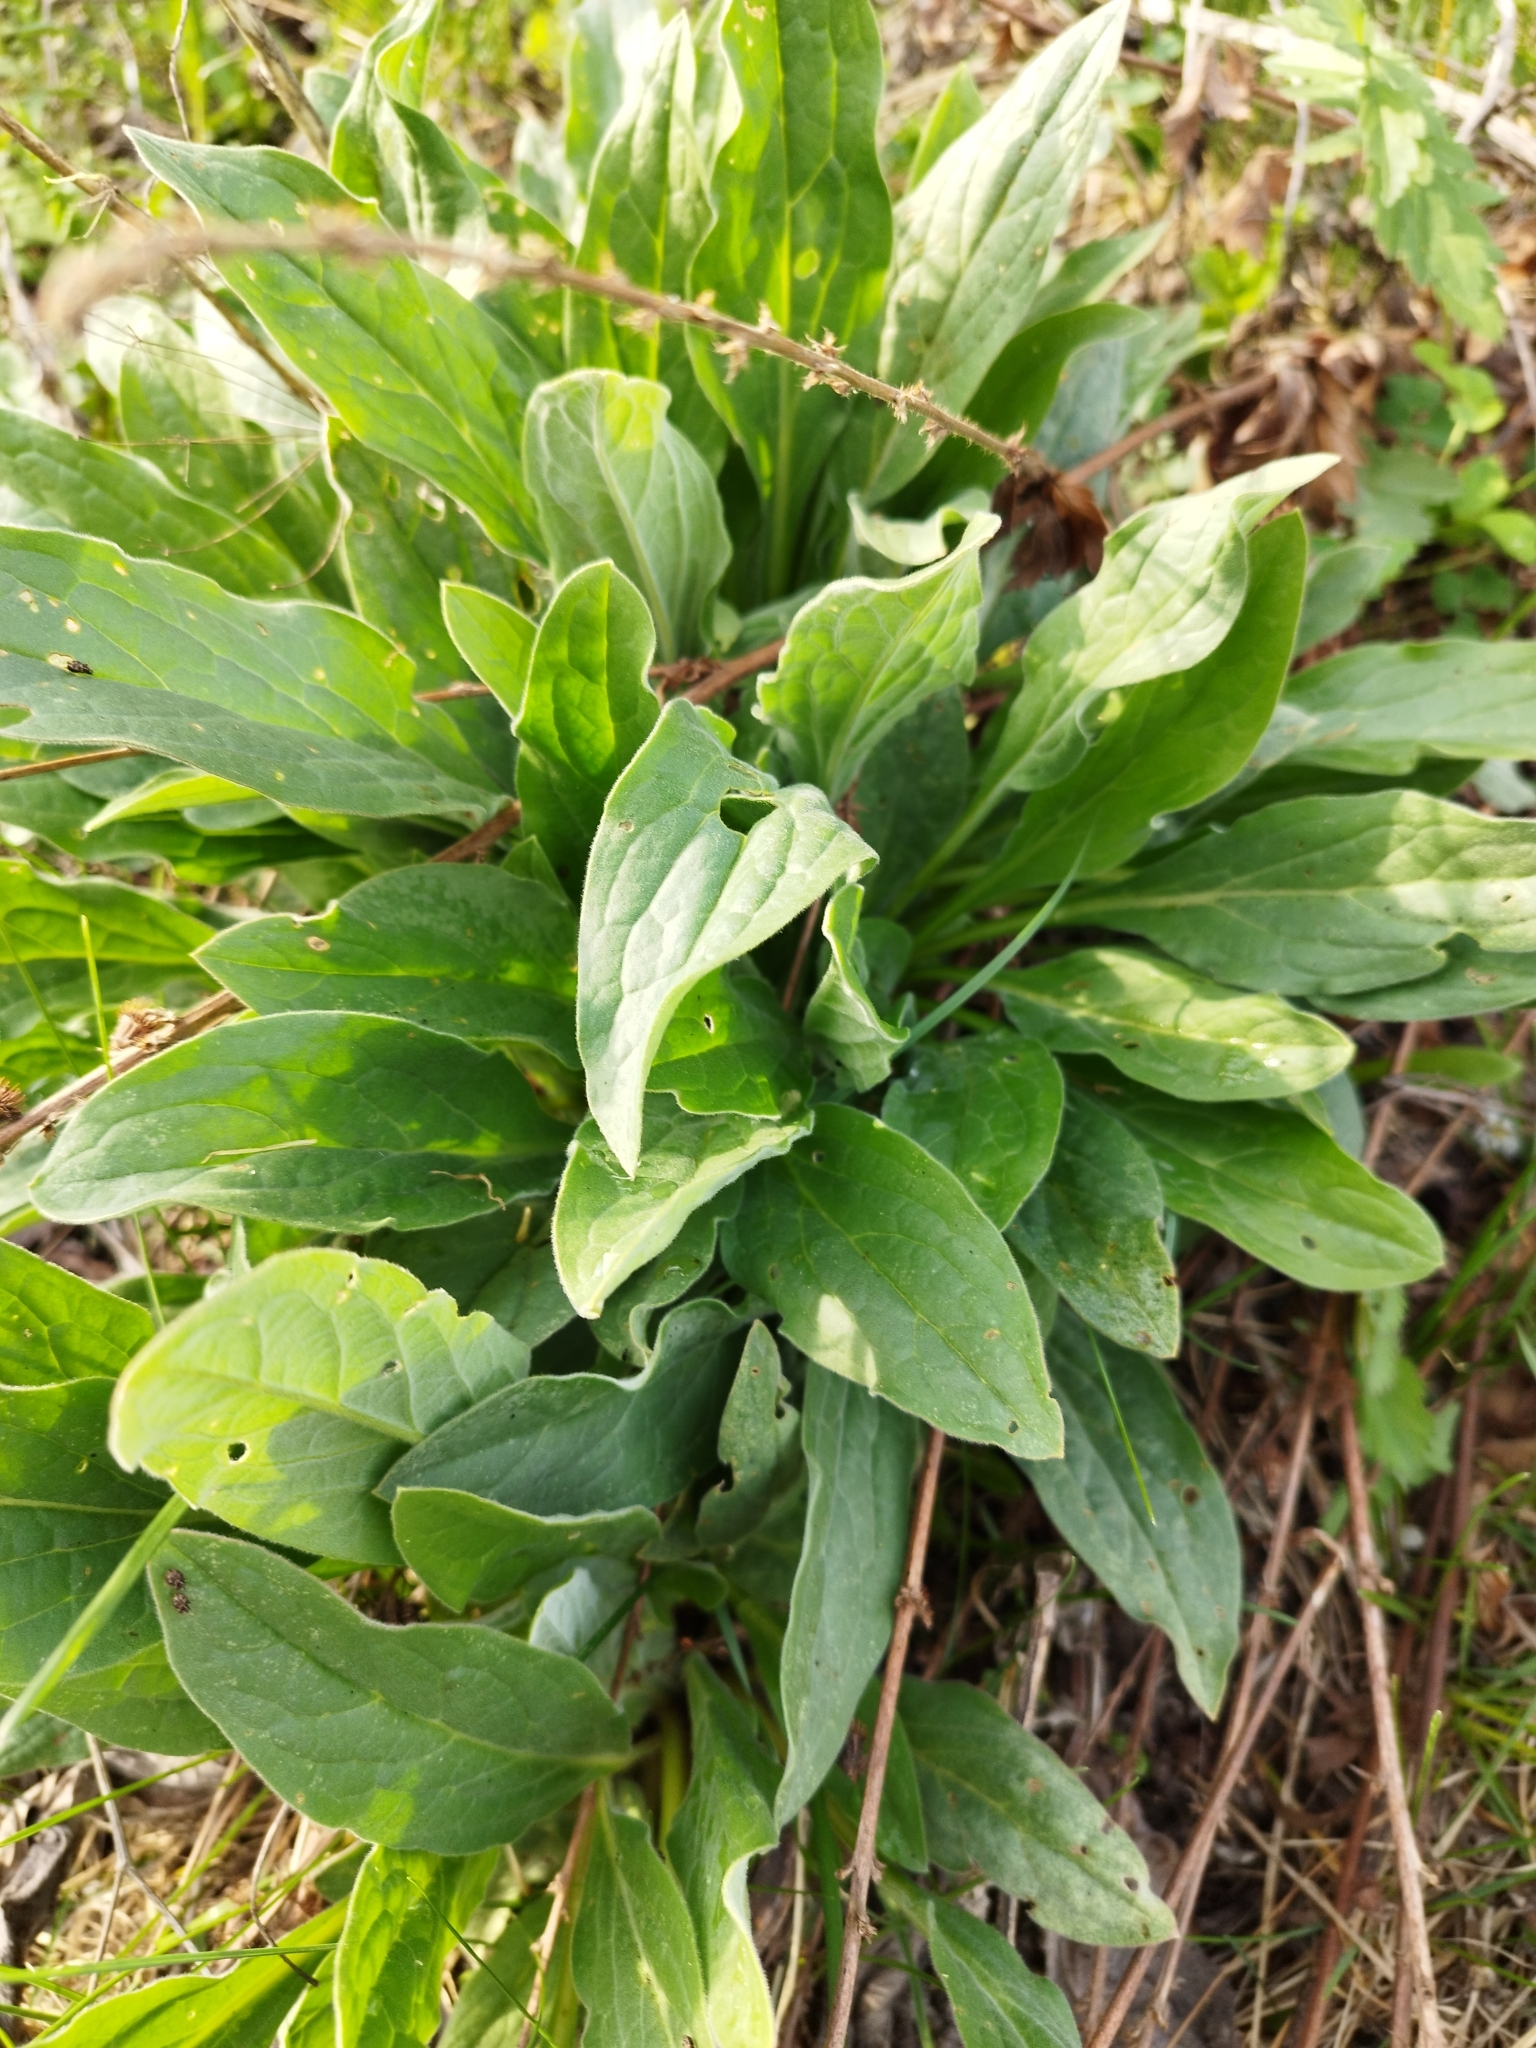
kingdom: Plantae
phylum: Tracheophyta
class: Magnoliopsida
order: Boraginales
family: Boraginaceae
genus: Cynoglossum
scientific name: Cynoglossum officinale
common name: Hound's-tongue
